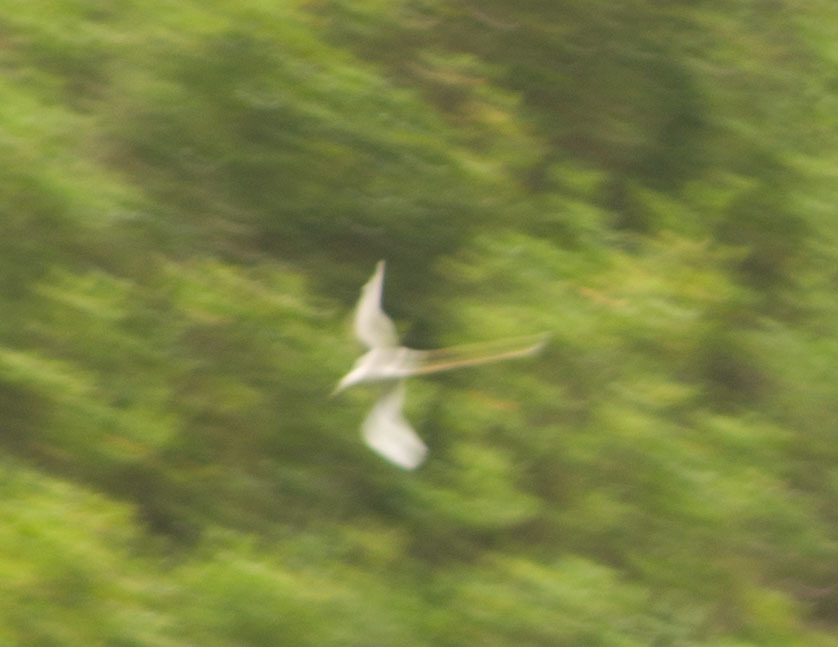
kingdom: Animalia
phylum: Chordata
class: Aves
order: Phaethontiformes
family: Phaethontidae
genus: Phaethon
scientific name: Phaethon lepturus
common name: White-tailed tropicbird
